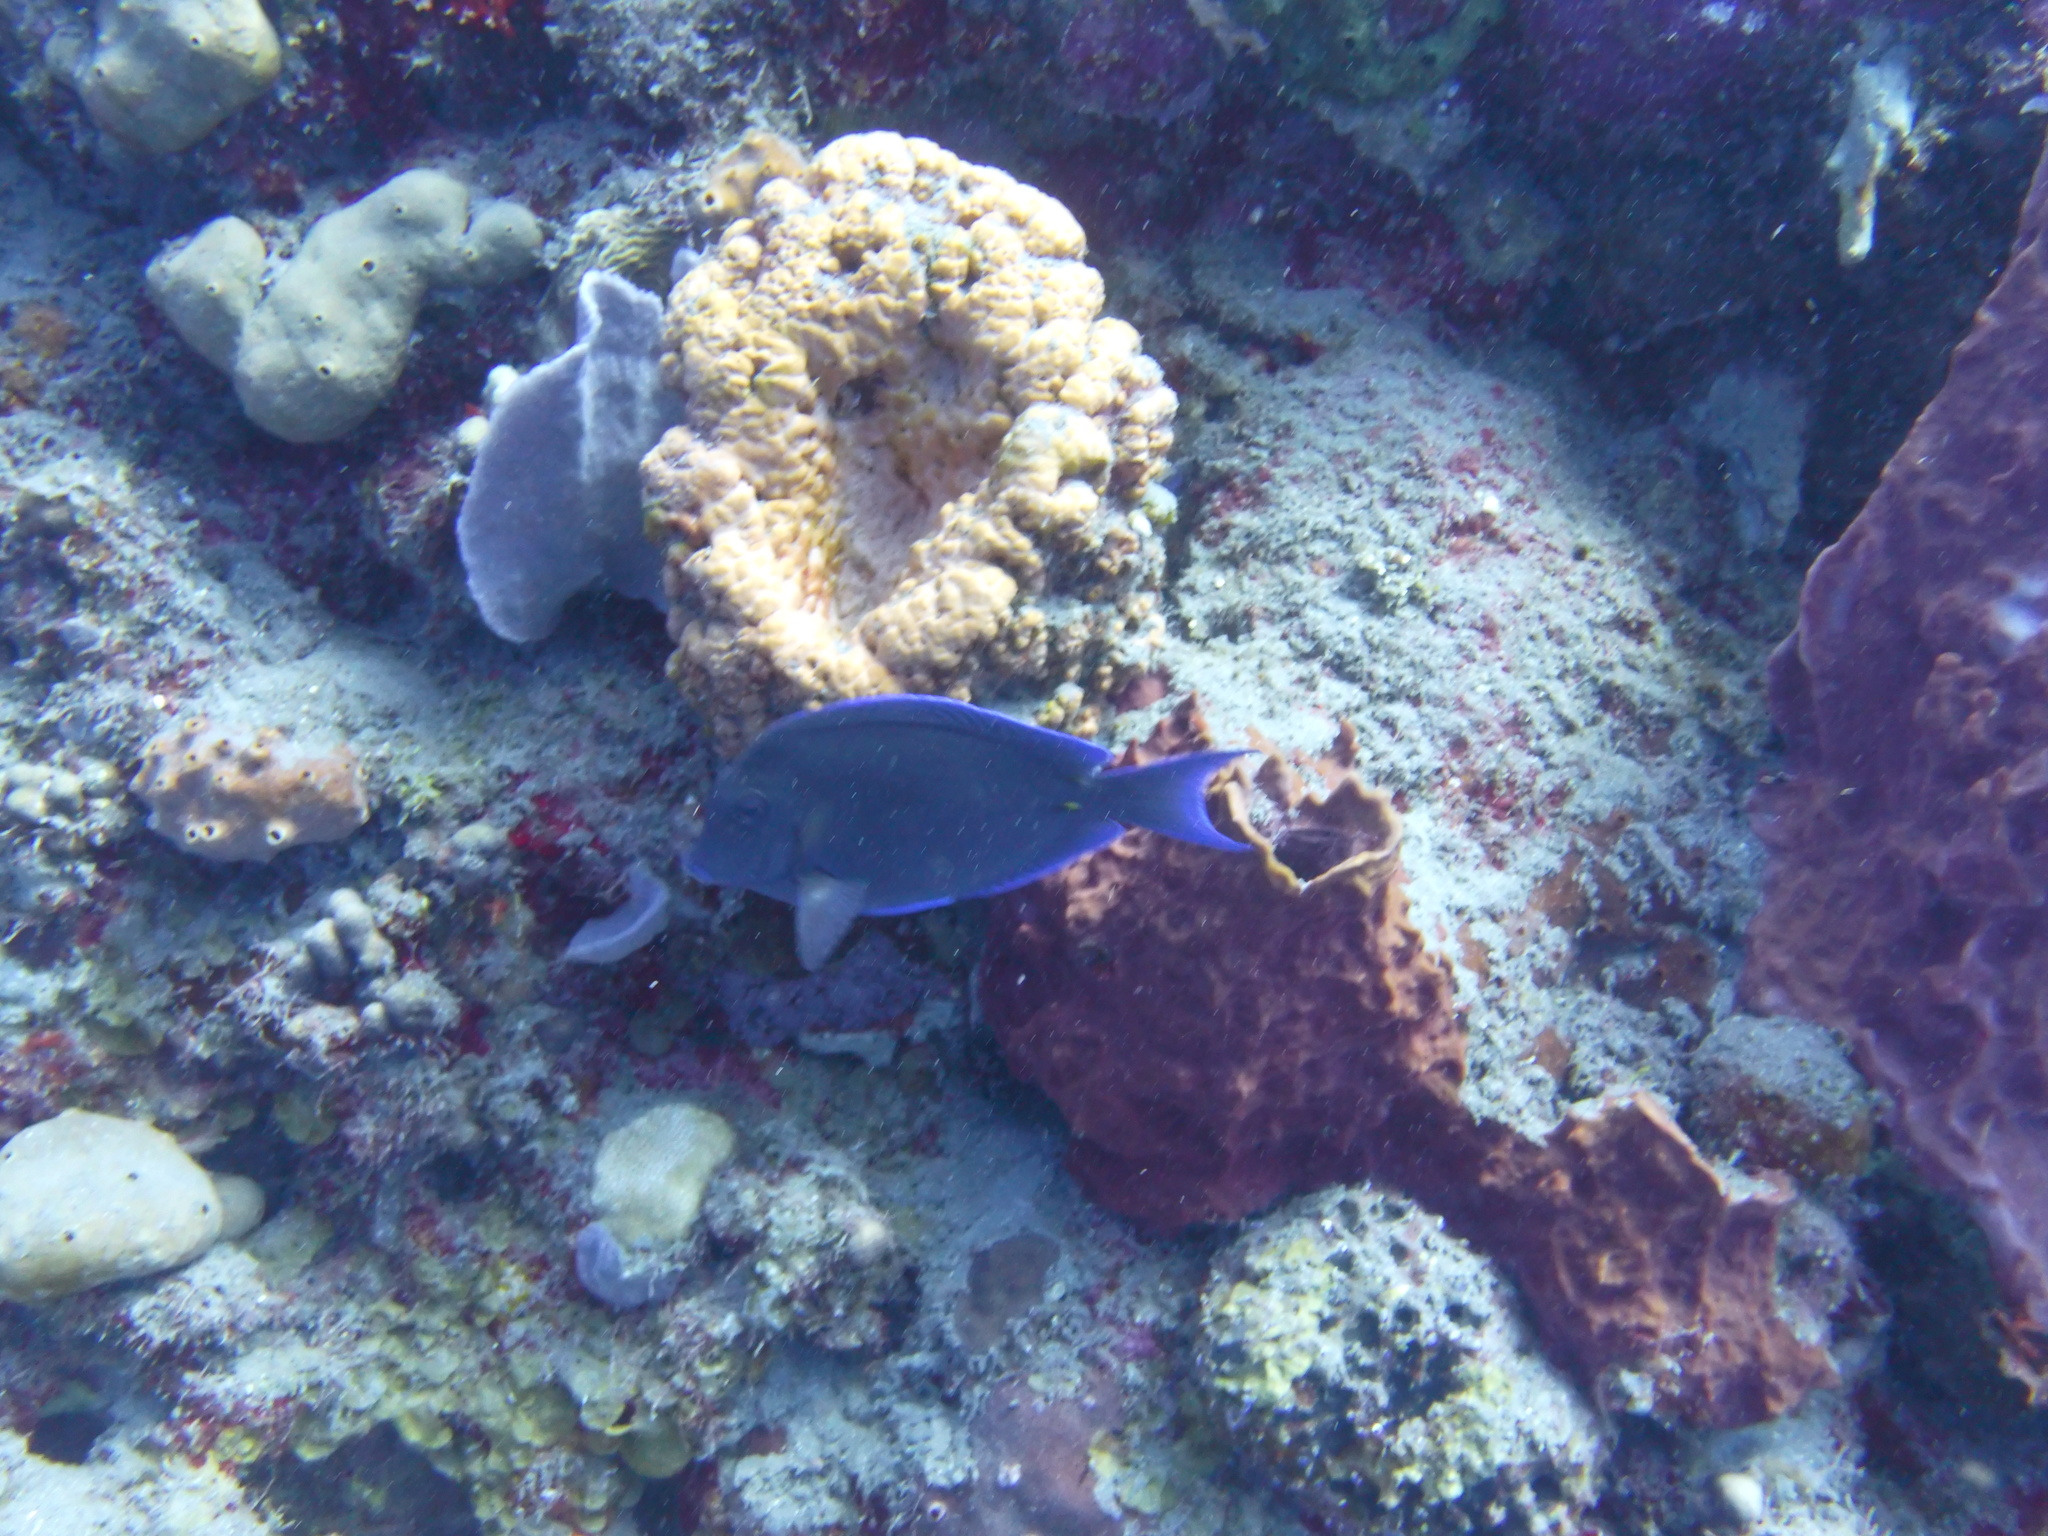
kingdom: Animalia
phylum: Chordata
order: Perciformes
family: Acanthuridae
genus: Acanthurus
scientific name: Acanthurus coeruleus
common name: Blue tang
